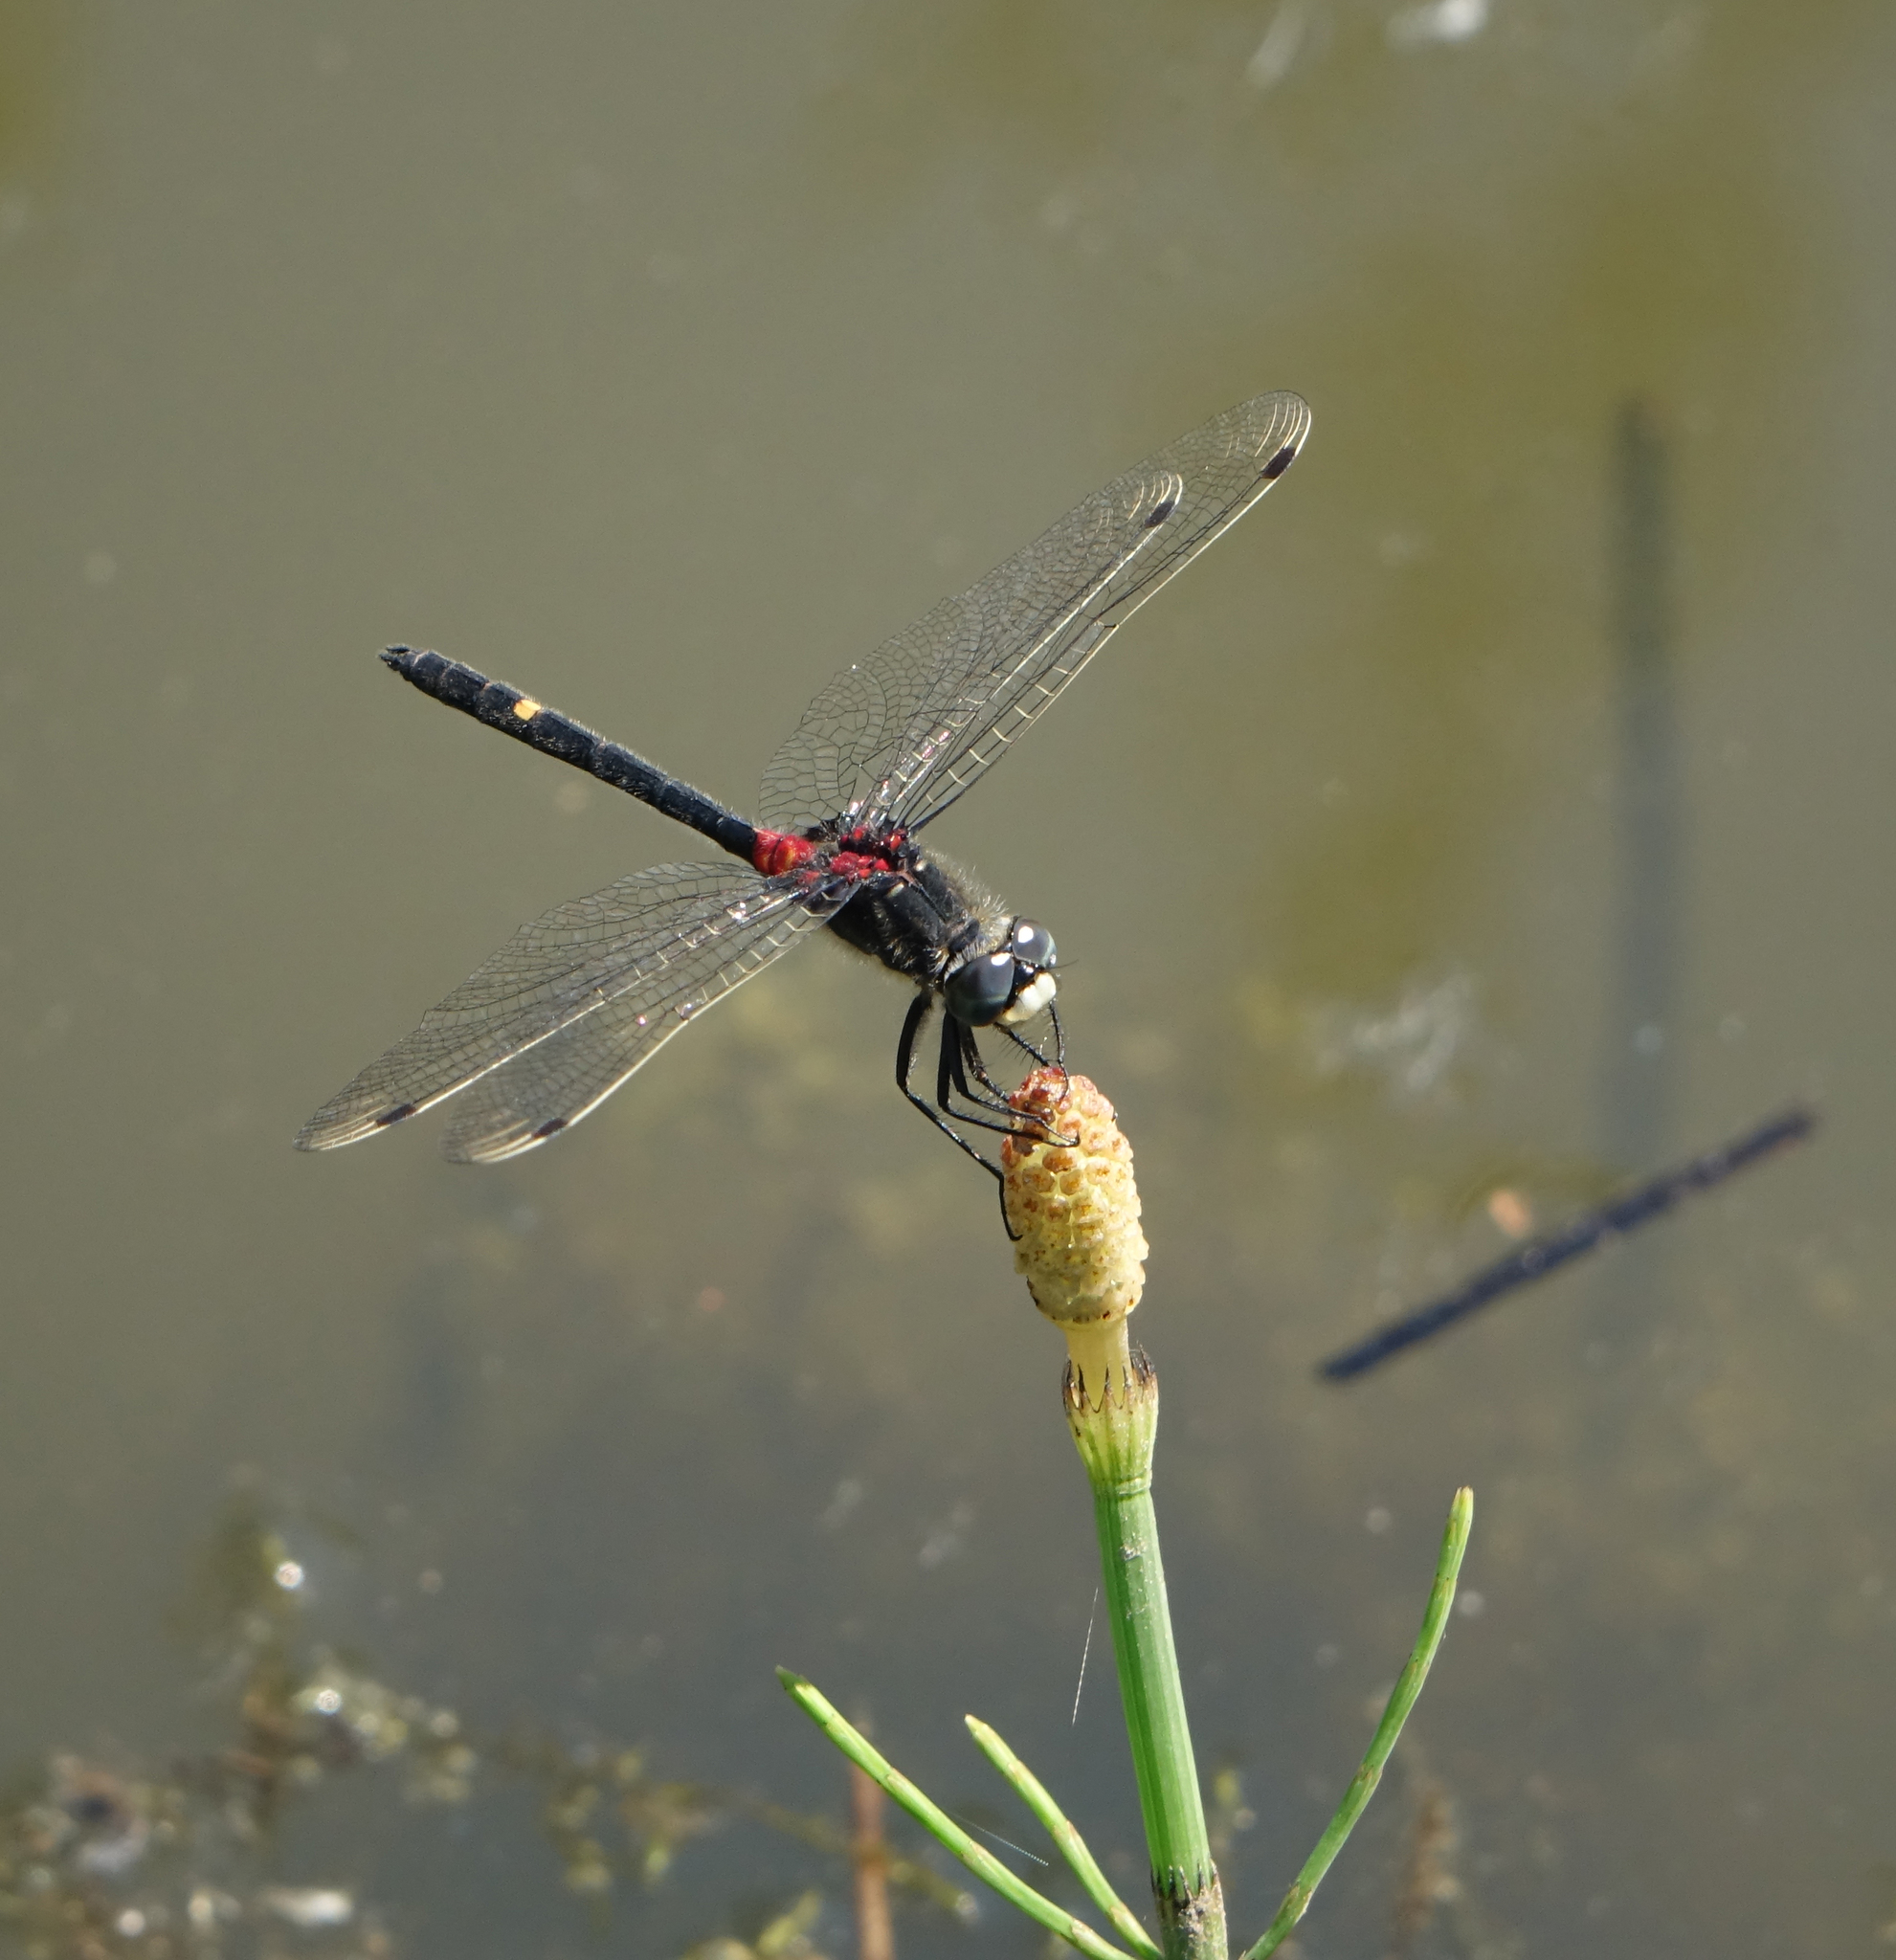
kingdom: Animalia
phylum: Arthropoda
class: Insecta
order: Odonata
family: Libellulidae
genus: Leucorrhinia
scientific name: Leucorrhinia orientalis
